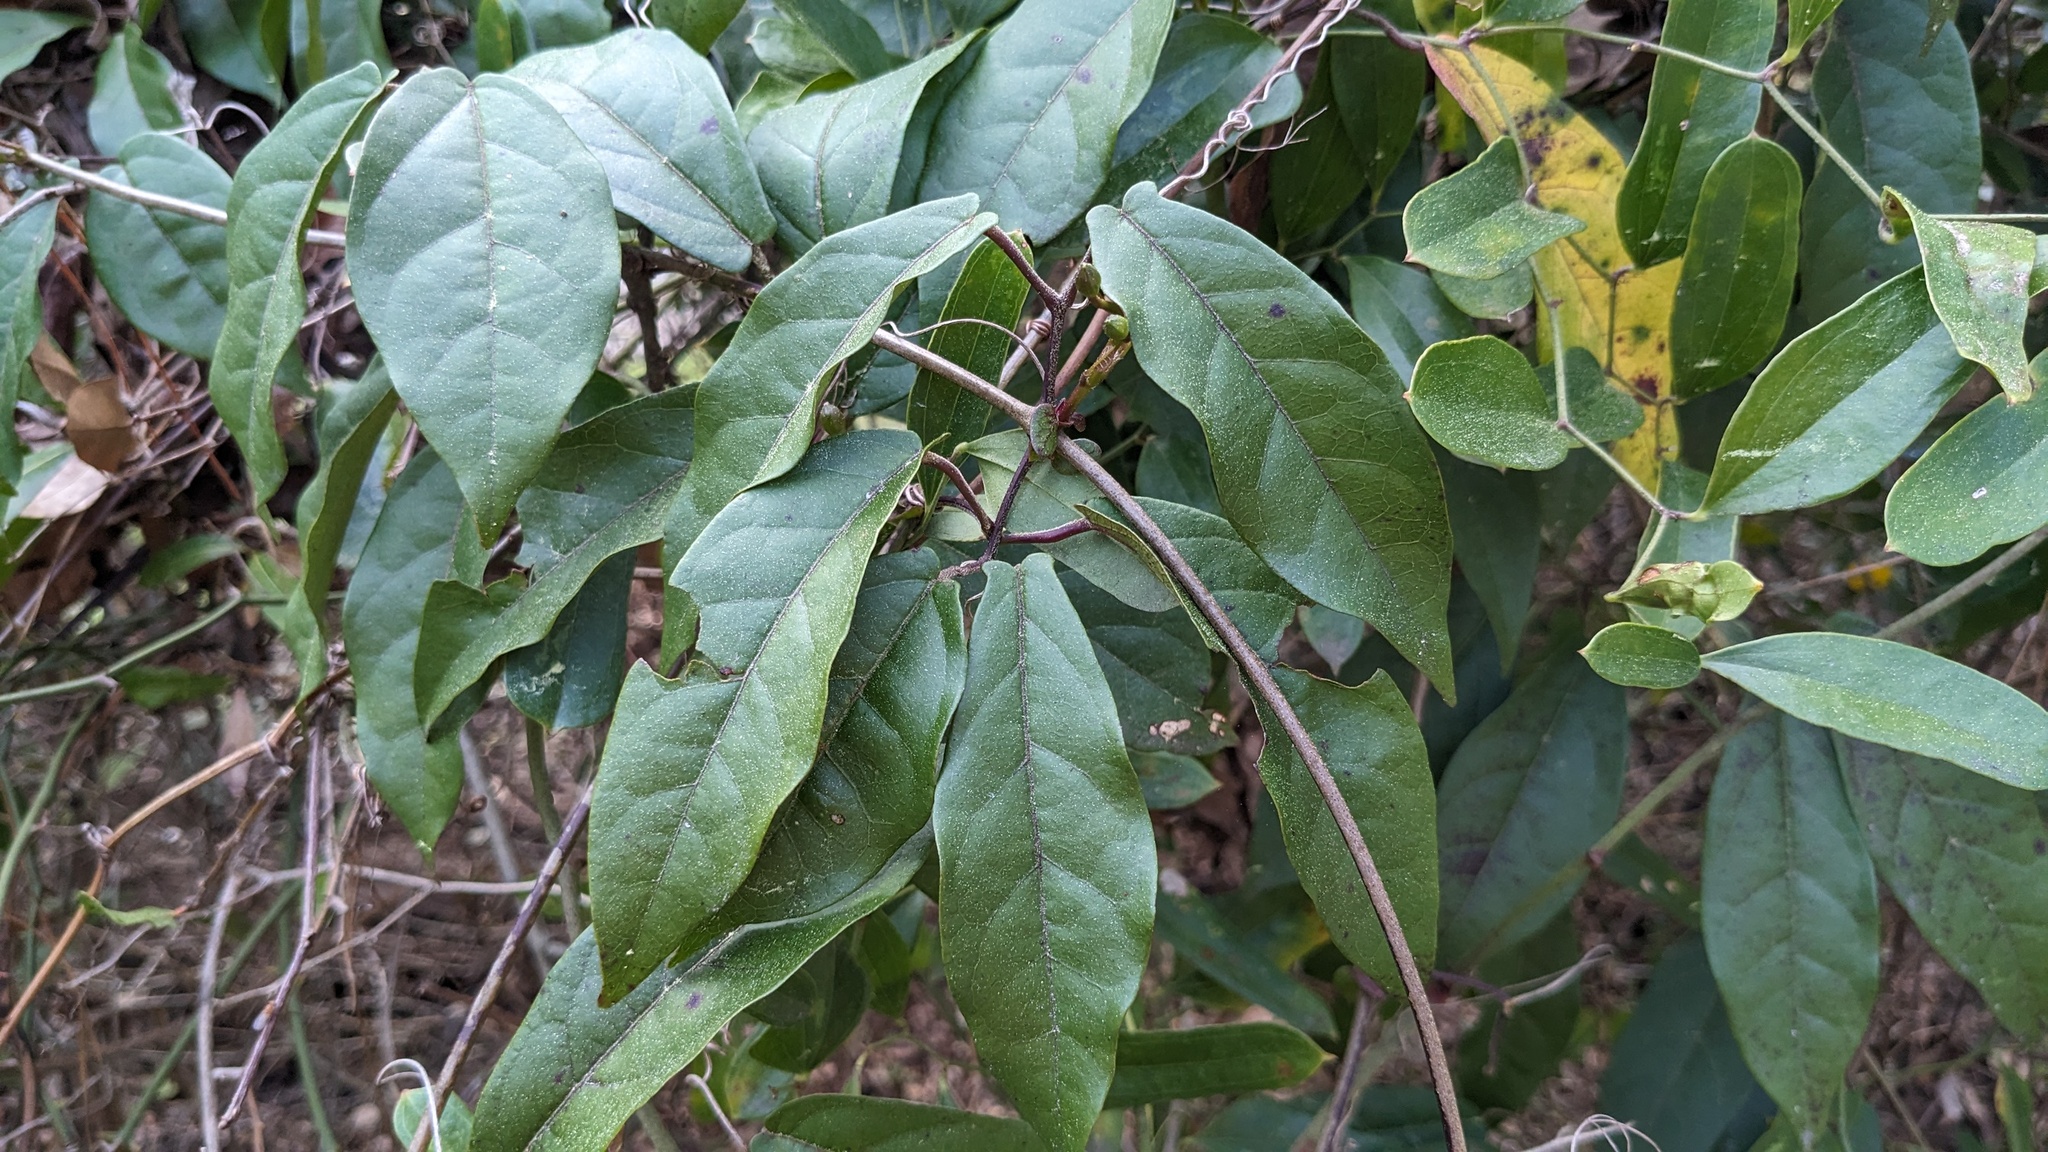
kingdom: Plantae
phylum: Tracheophyta
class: Magnoliopsida
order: Lamiales
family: Bignoniaceae
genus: Bignonia
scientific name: Bignonia capreolata
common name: Crossvine
